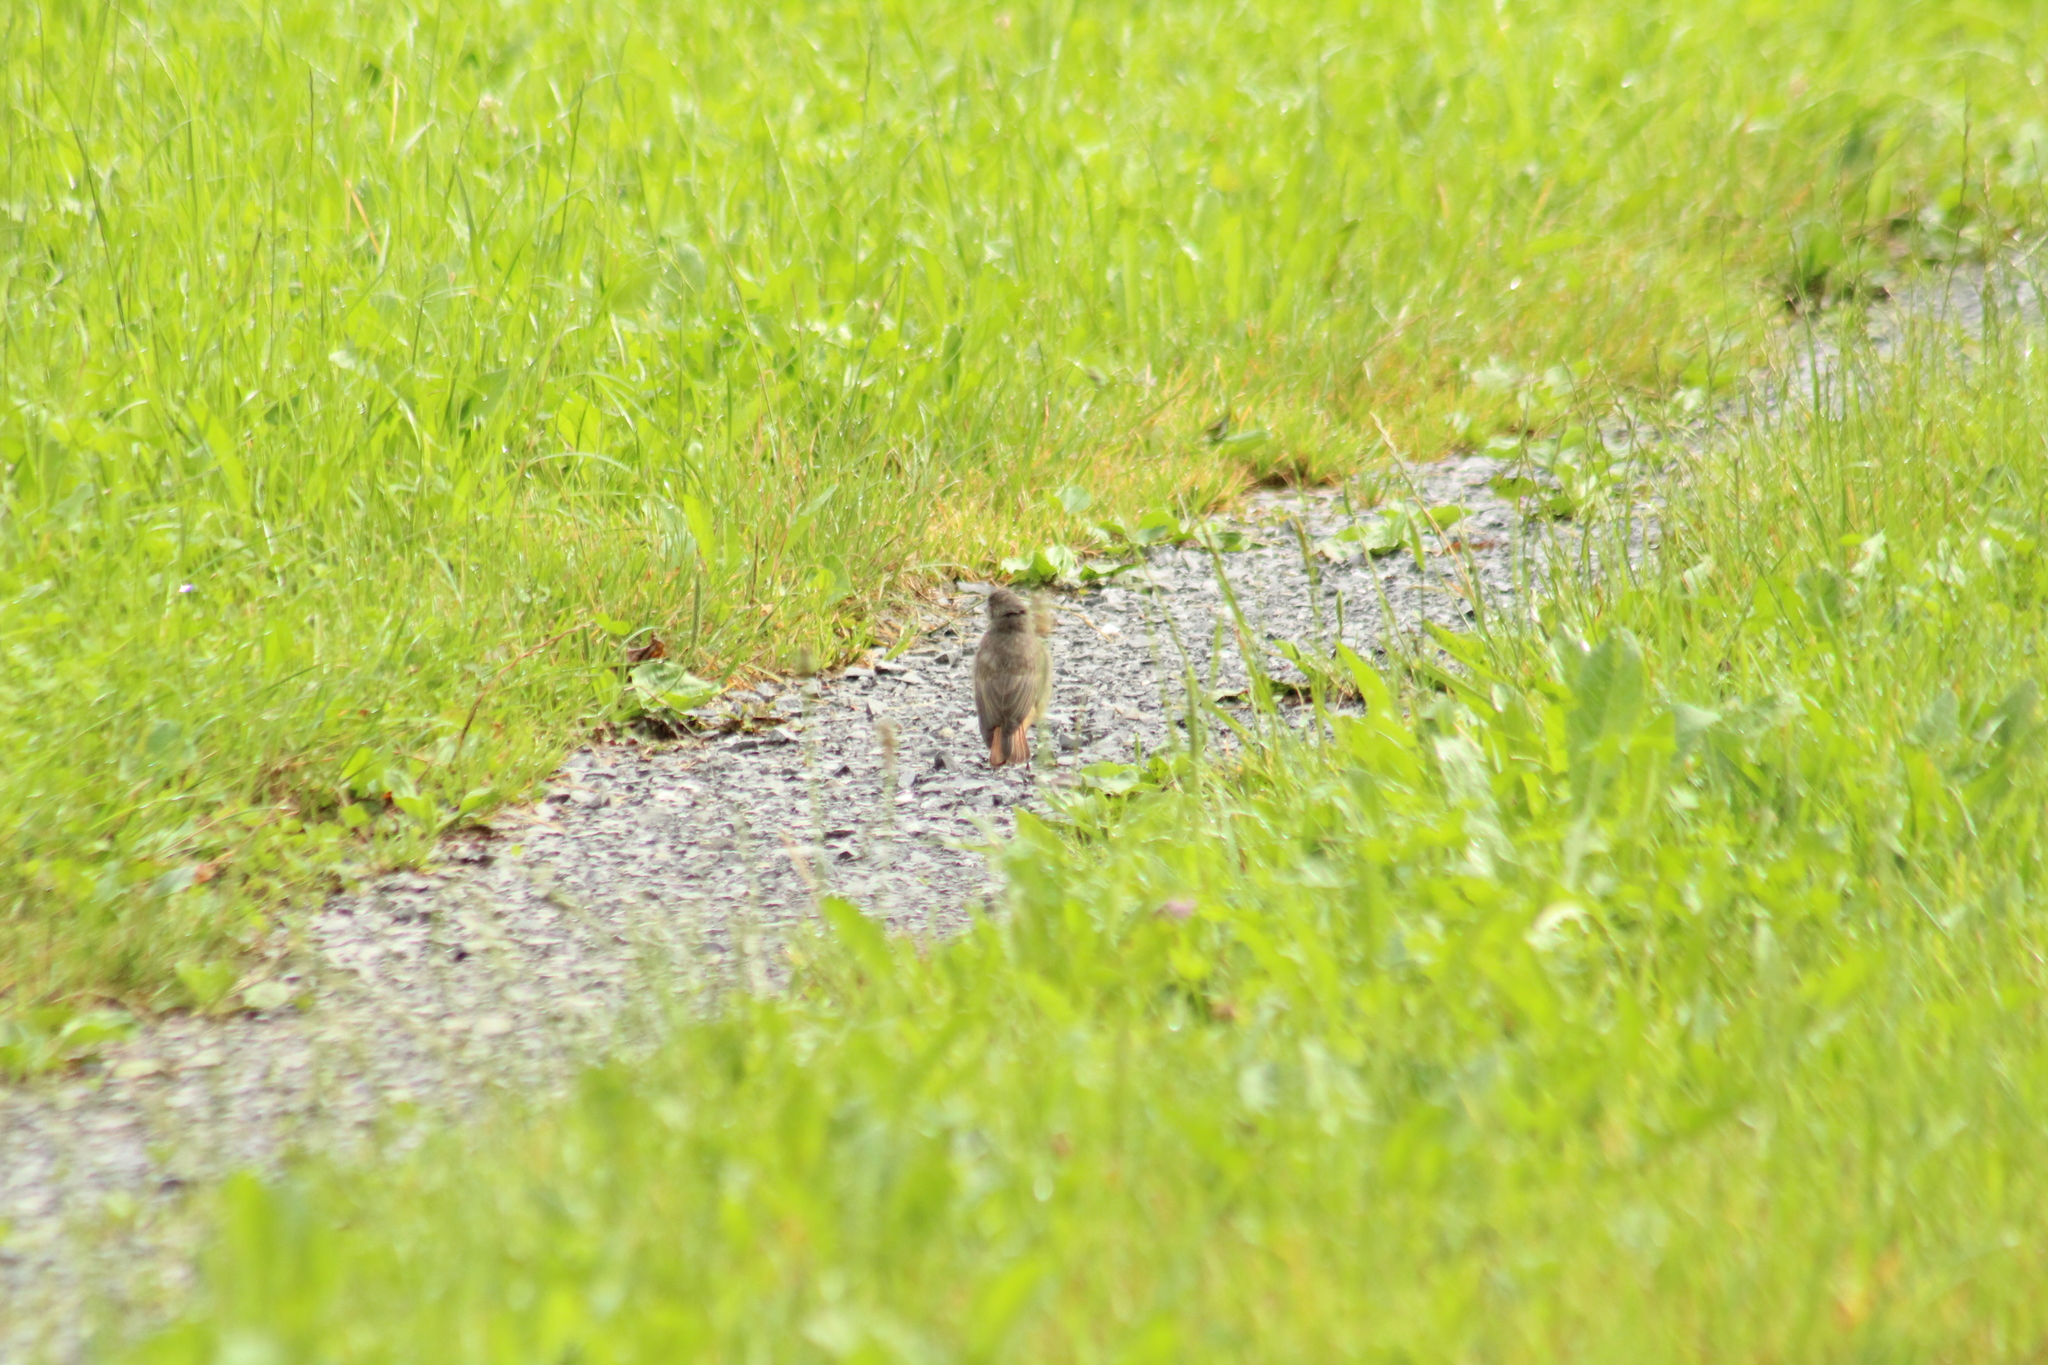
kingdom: Animalia
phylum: Chordata
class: Aves
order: Passeriformes
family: Muscicapidae
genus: Phoenicurus
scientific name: Phoenicurus ochruros
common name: Black redstart
